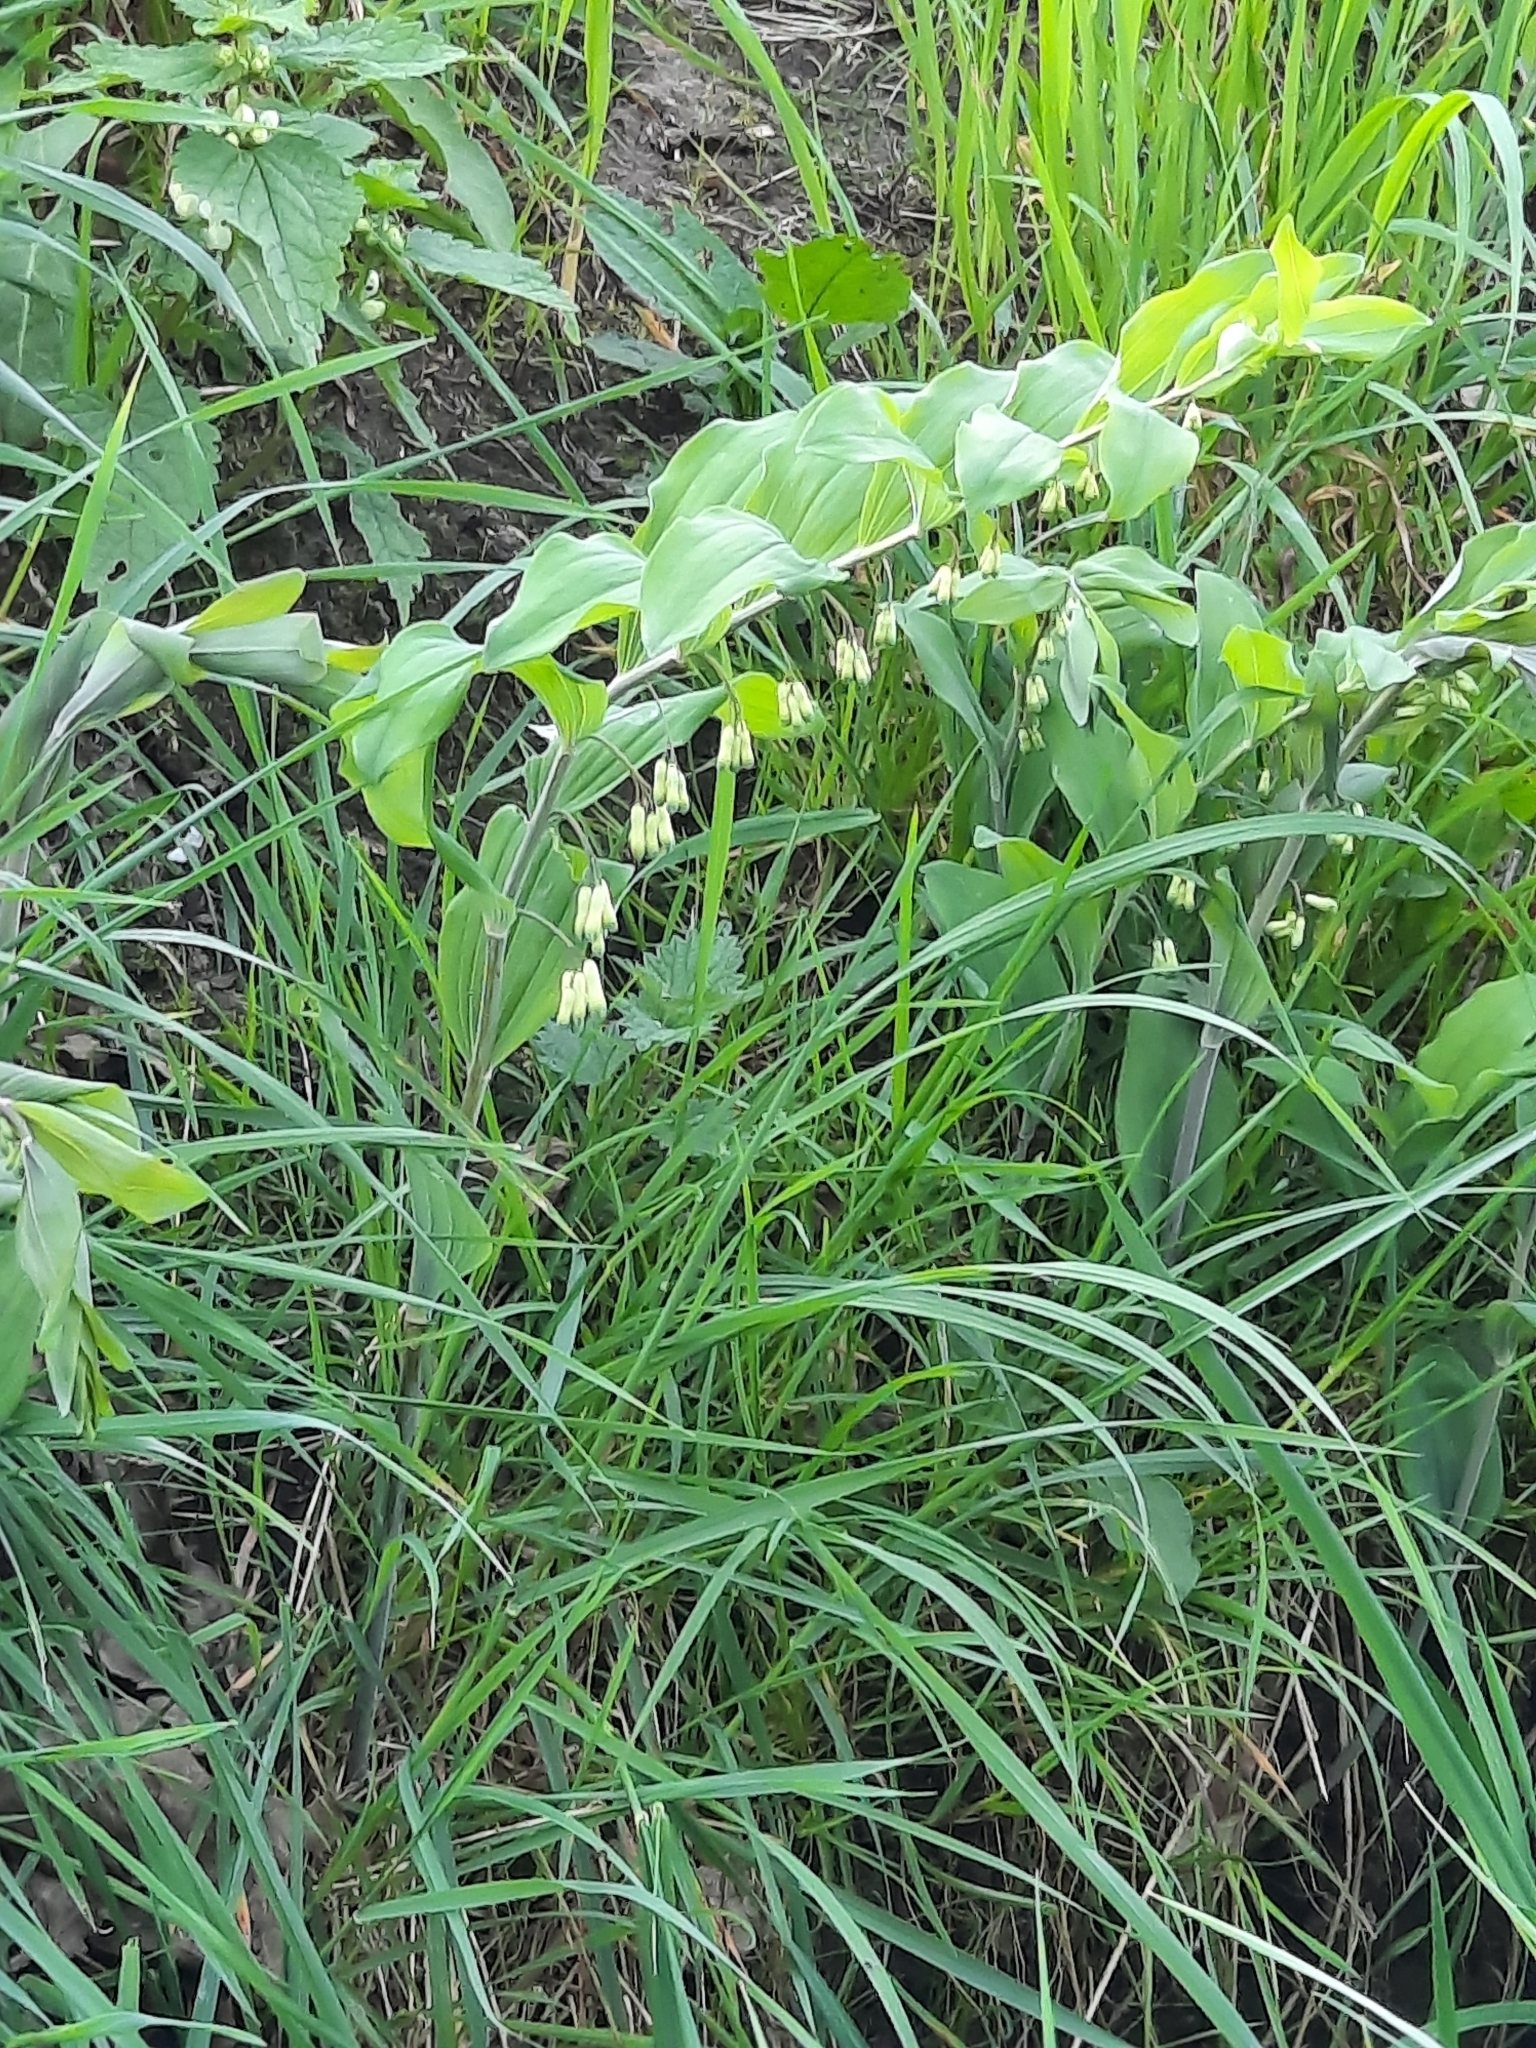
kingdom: Plantae
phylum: Tracheophyta
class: Liliopsida
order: Asparagales
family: Asparagaceae
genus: Polygonatum
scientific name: Polygonatum multiflorum
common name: Solomon's-seal
